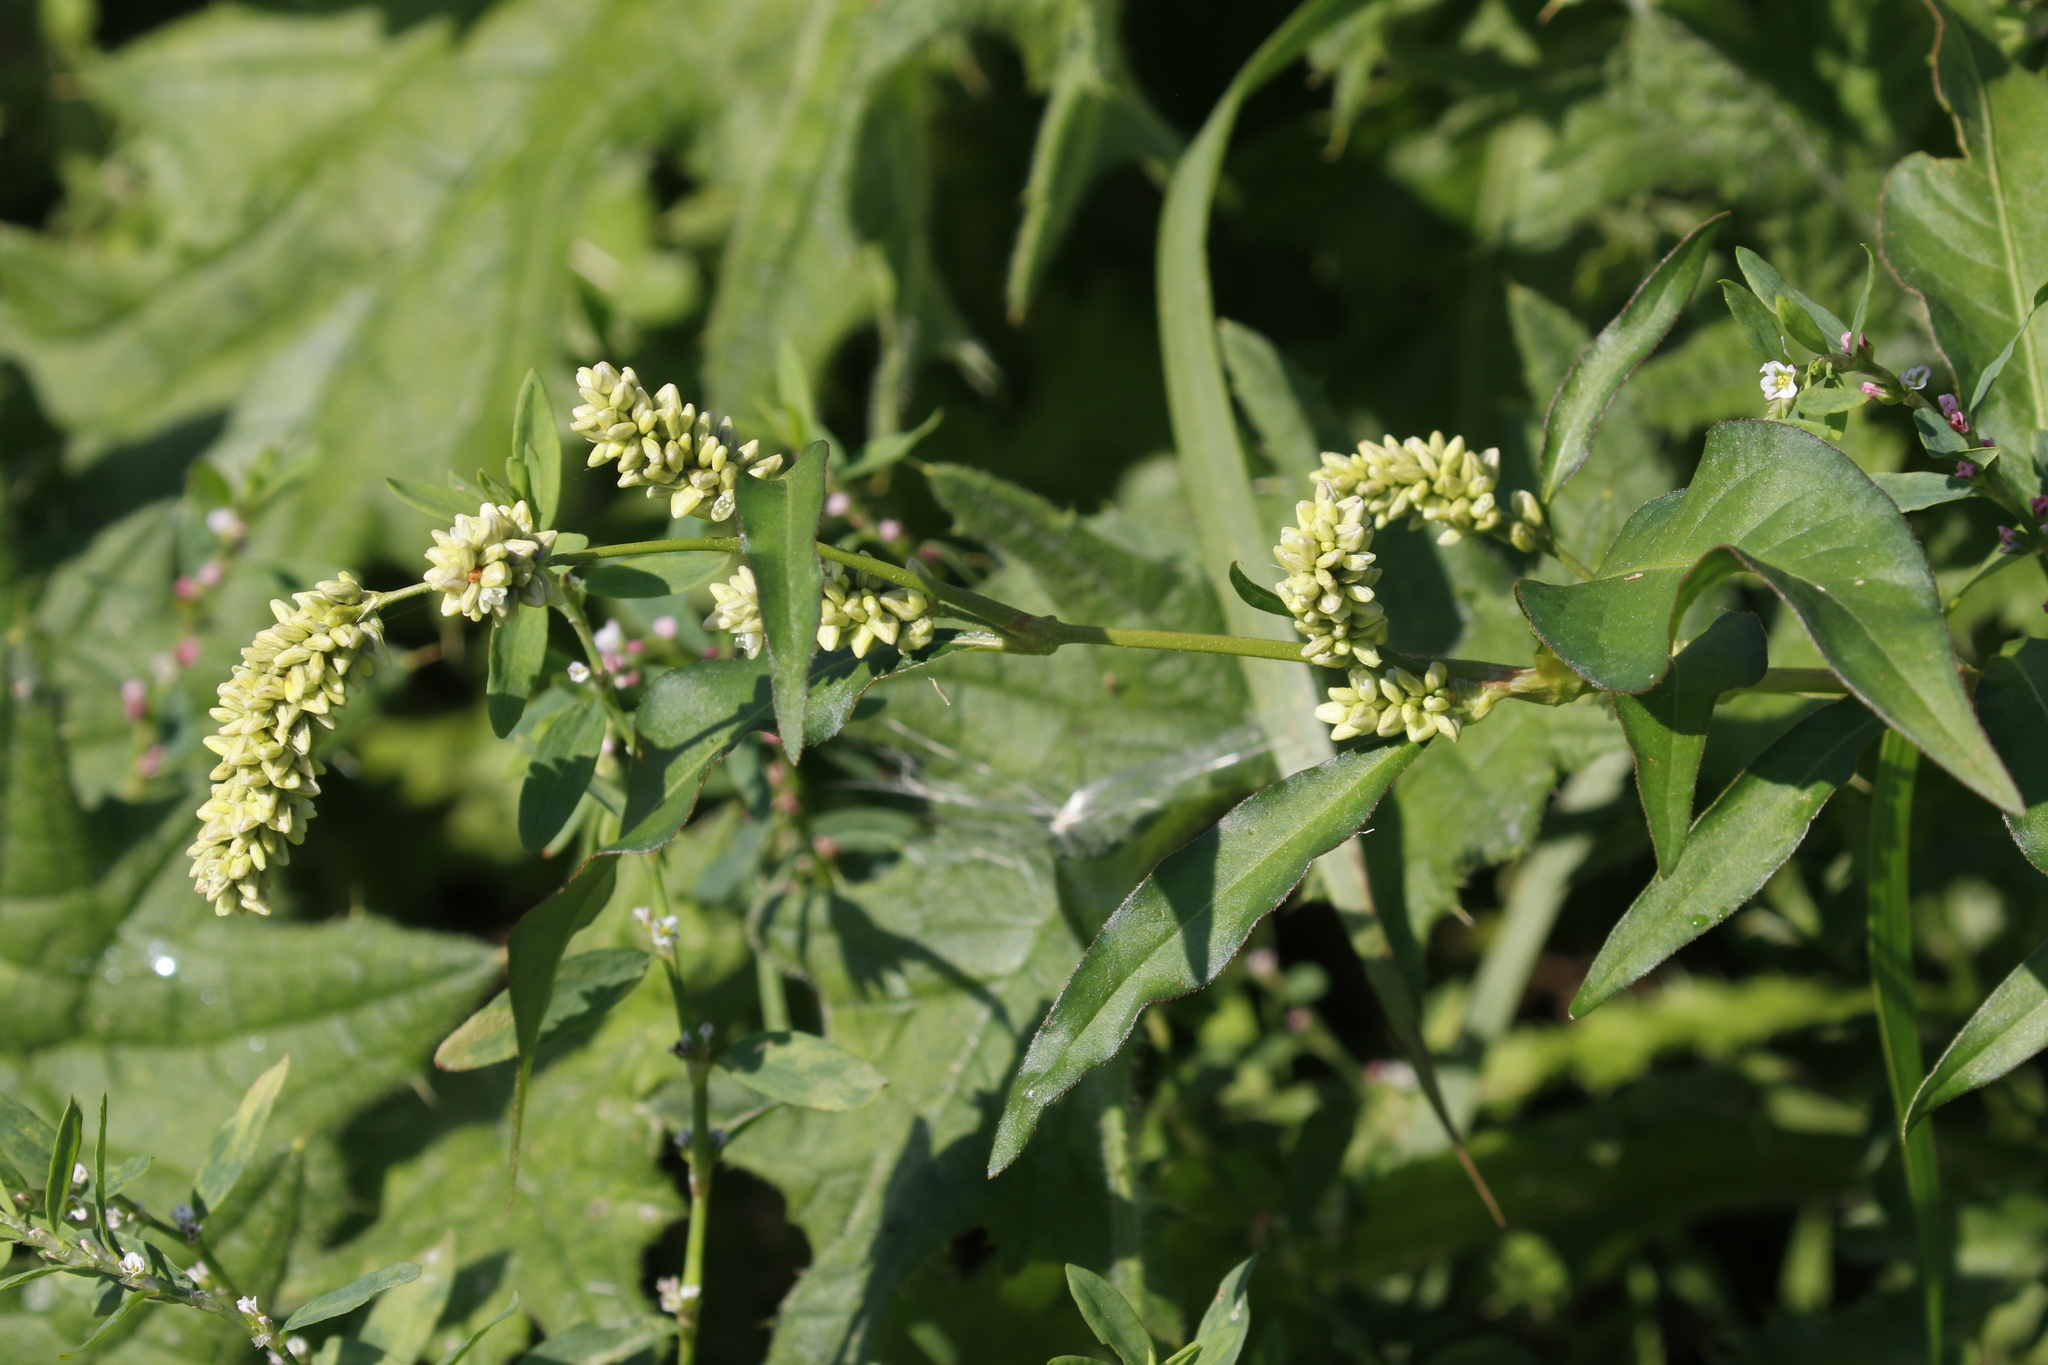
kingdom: Plantae
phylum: Tracheophyta
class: Magnoliopsida
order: Caryophyllales
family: Polygonaceae
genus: Persicaria
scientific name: Persicaria lapathifolia
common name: Curlytop knotweed
